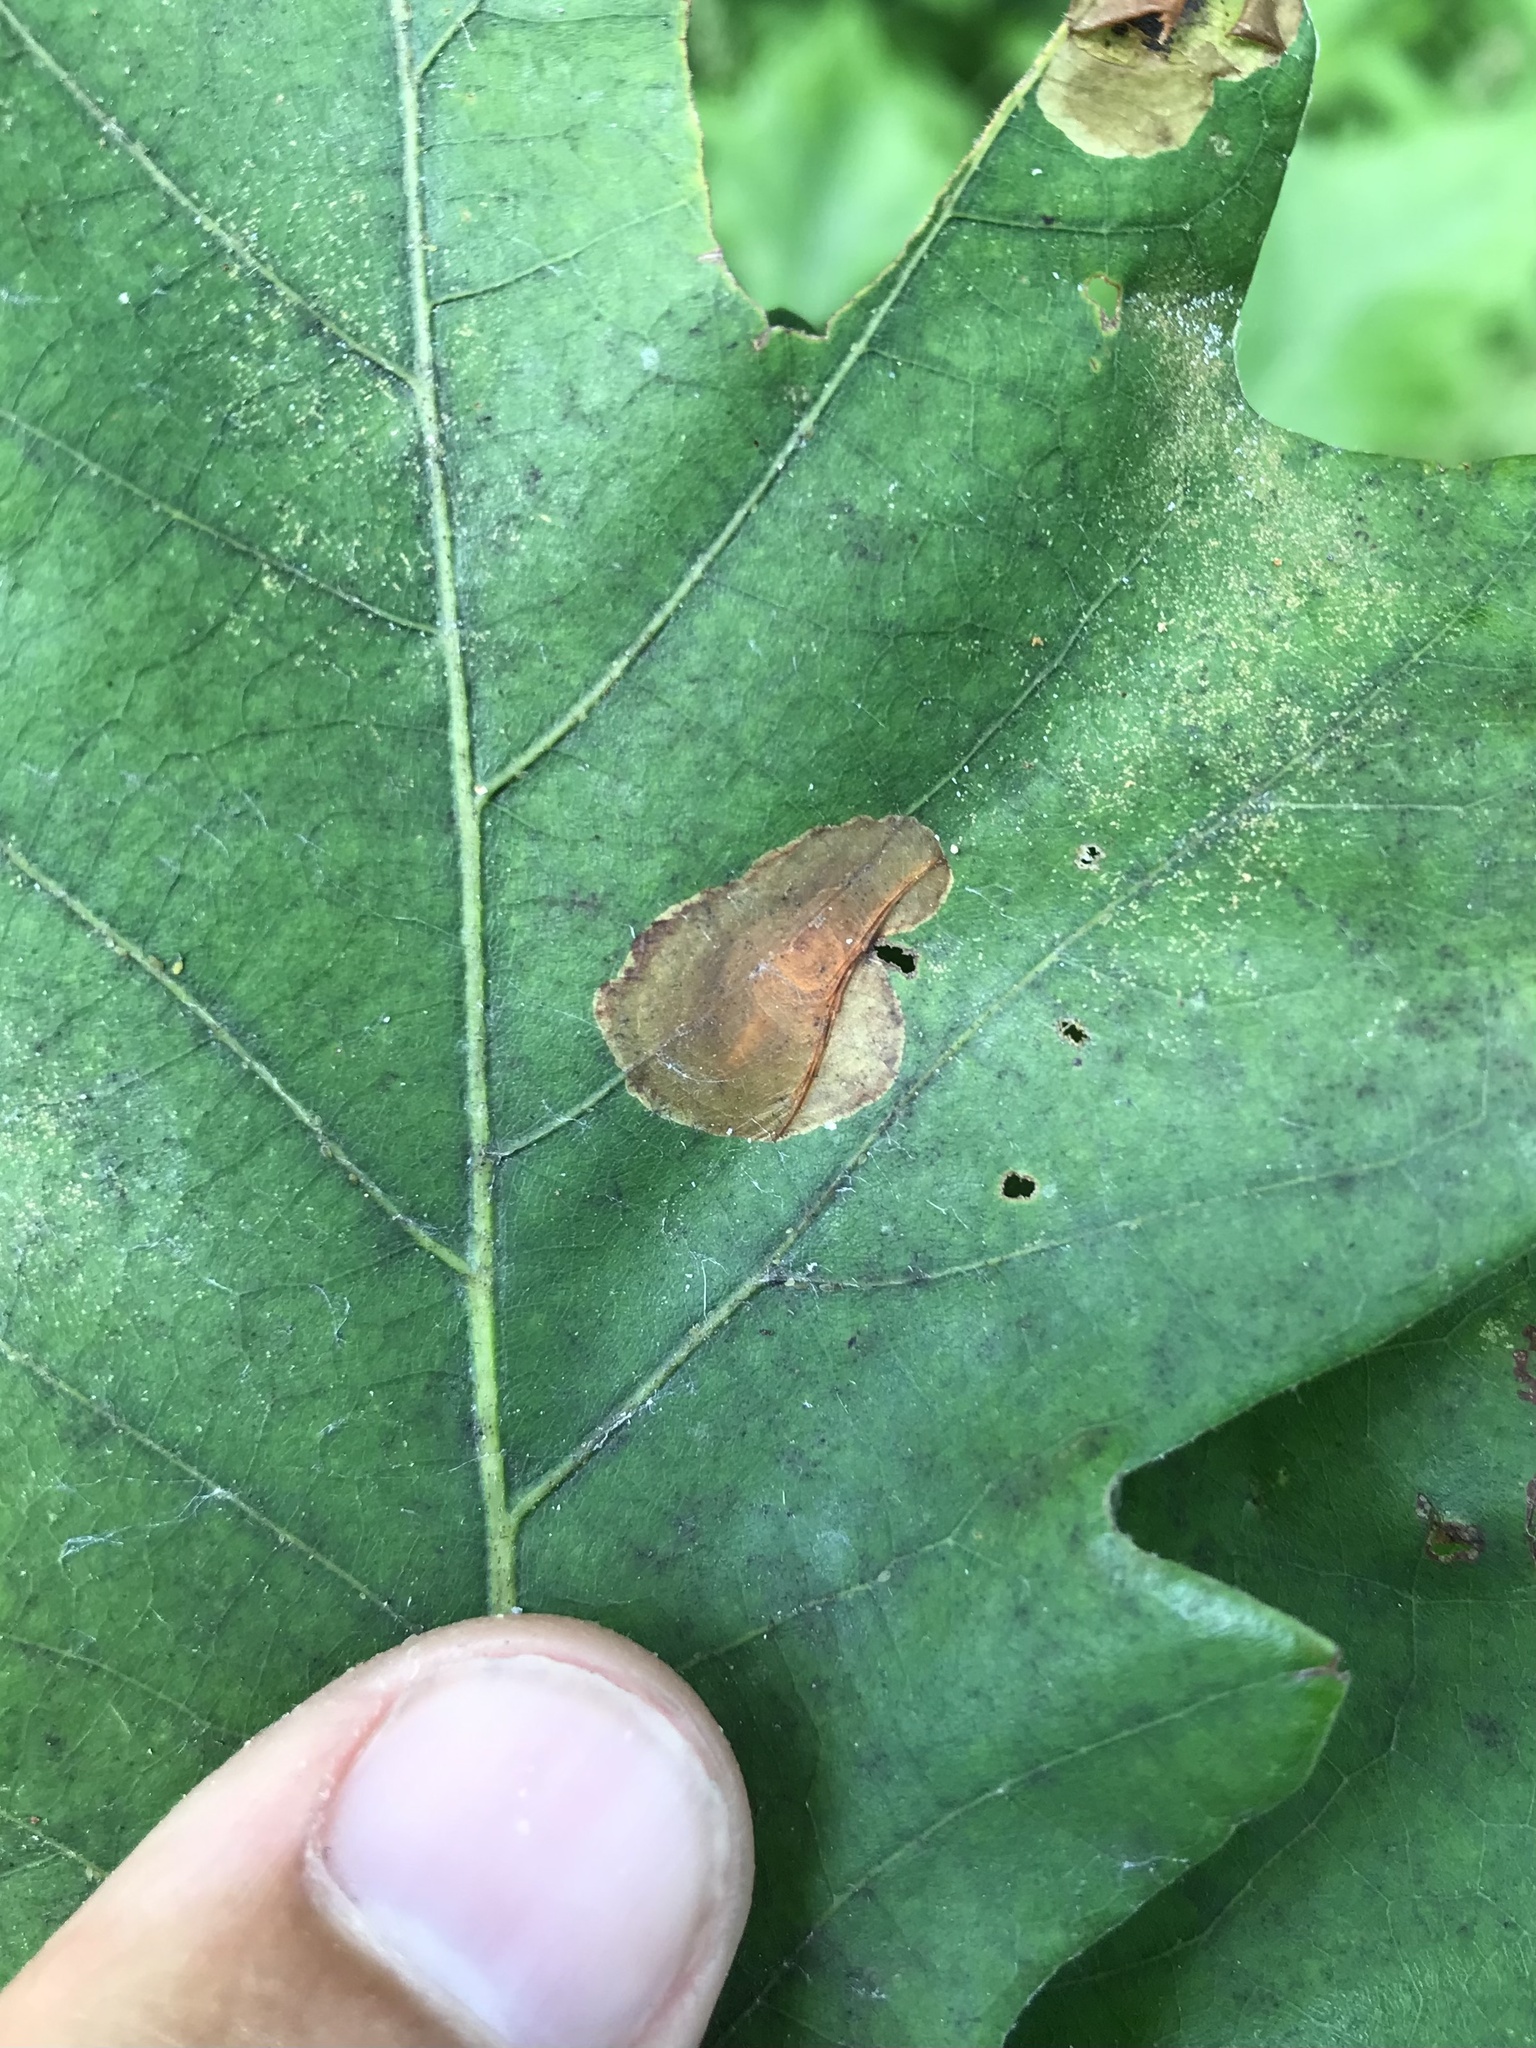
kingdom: Animalia
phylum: Arthropoda
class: Insecta
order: Lepidoptera
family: Gracillariidae
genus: Cameraria
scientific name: Cameraria platanoidiella
